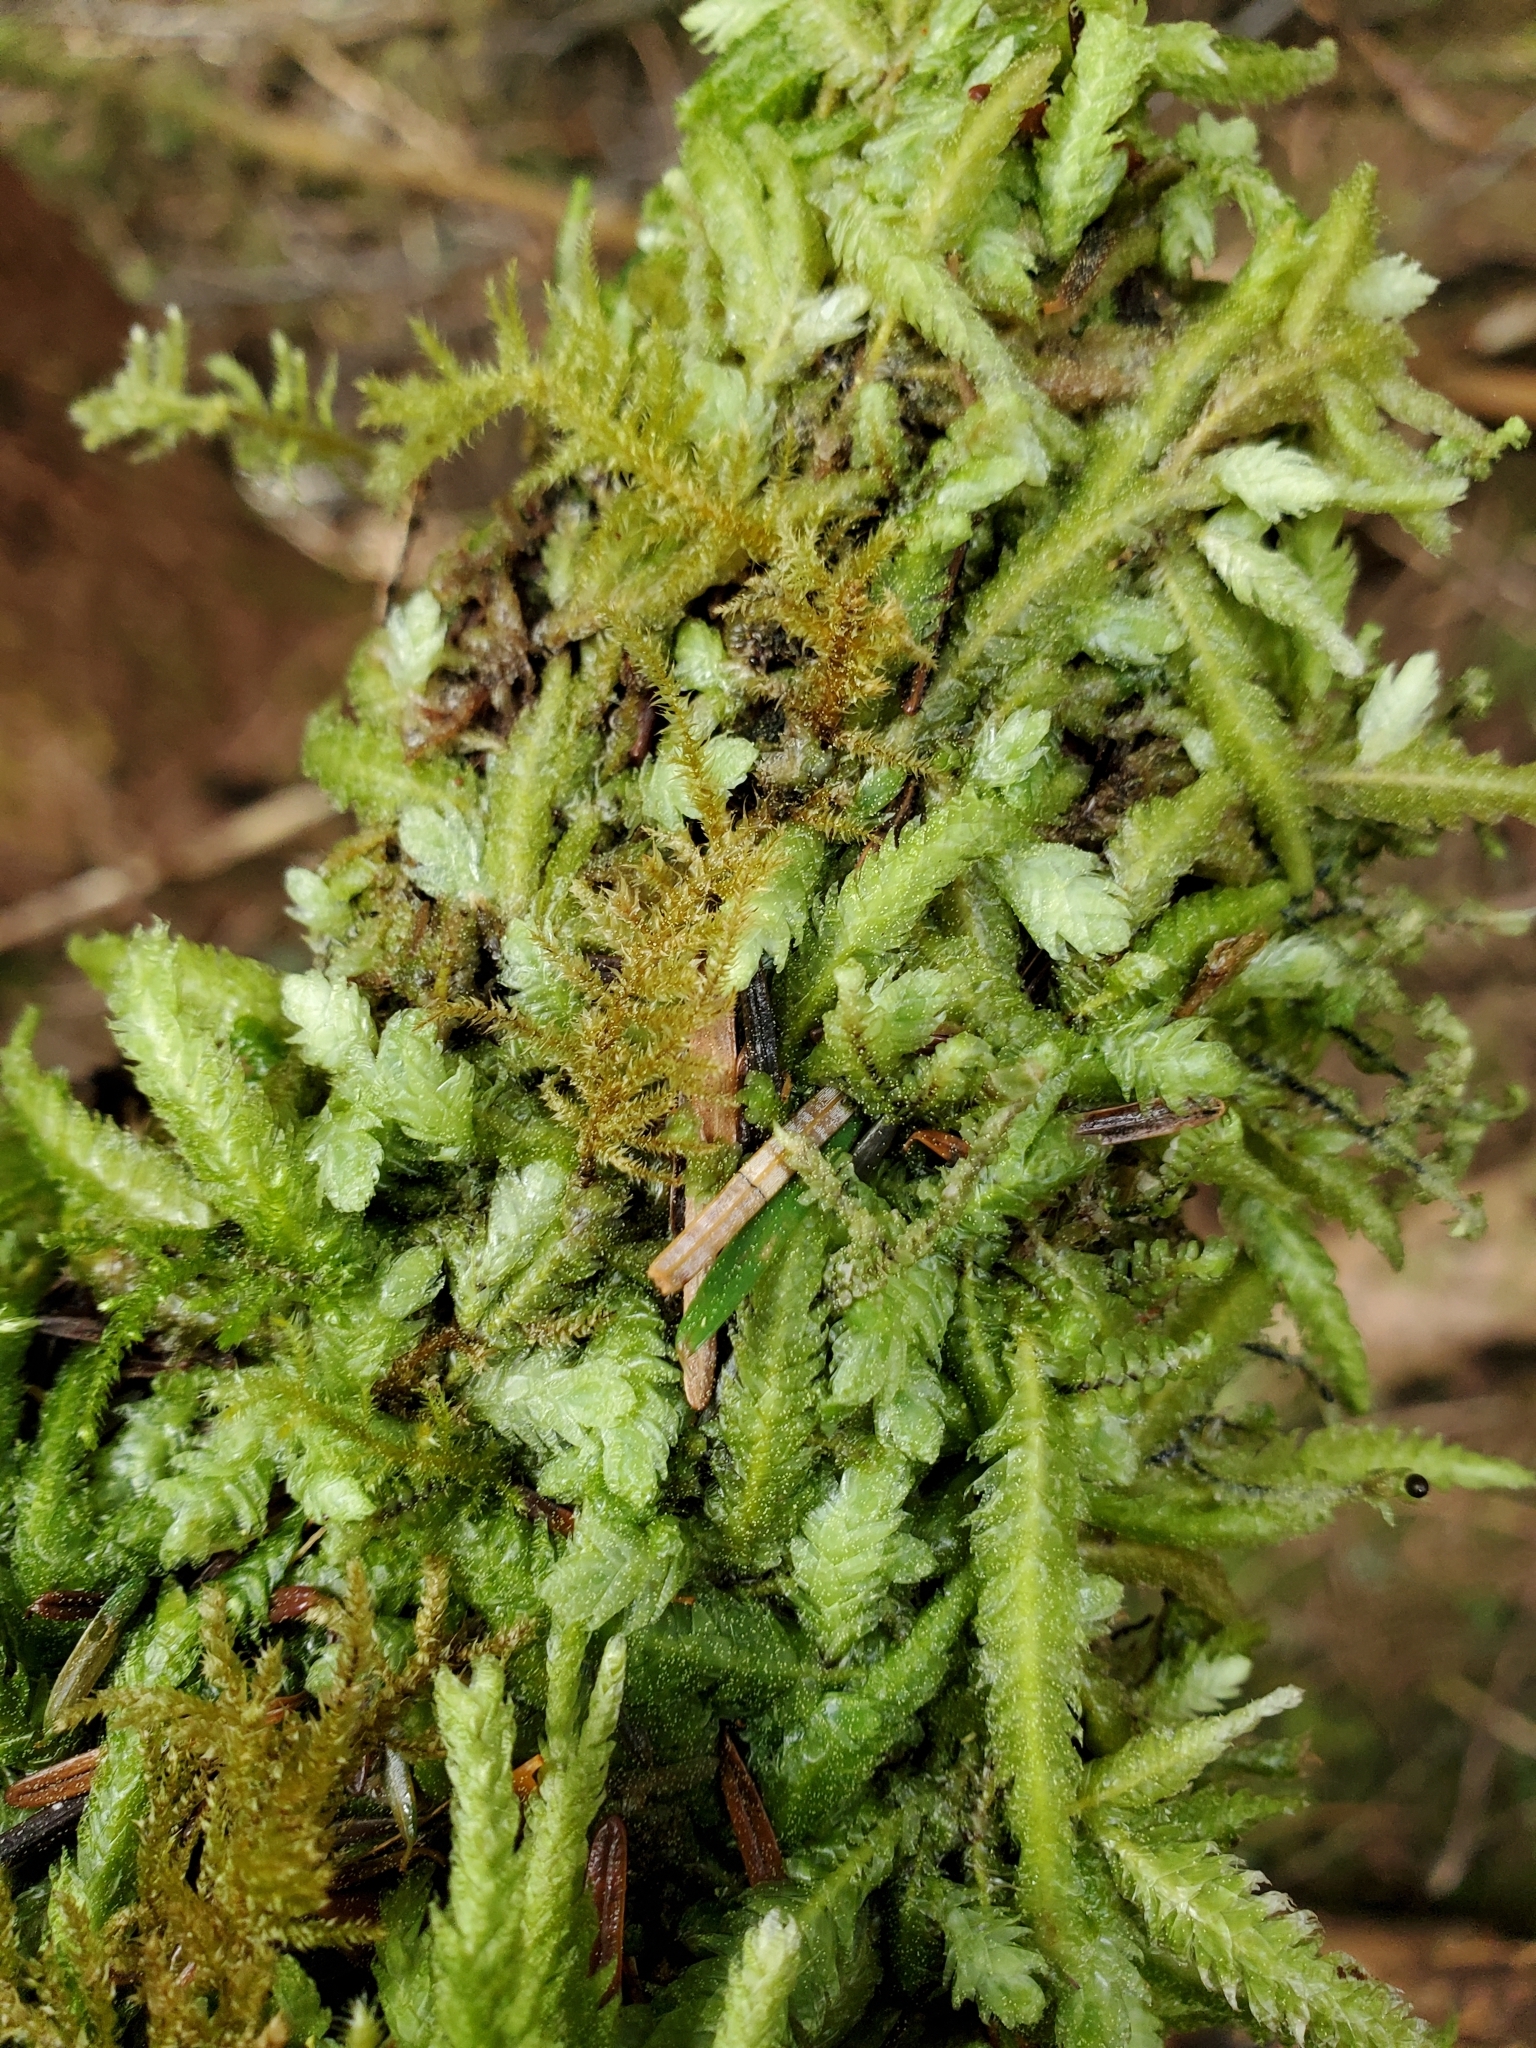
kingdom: Plantae
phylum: Bryophyta
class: Bryopsida
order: Hypnales
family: Plagiotheciaceae
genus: Plagiothecium
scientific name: Plagiothecium undulatum
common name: Waved silk-moss
